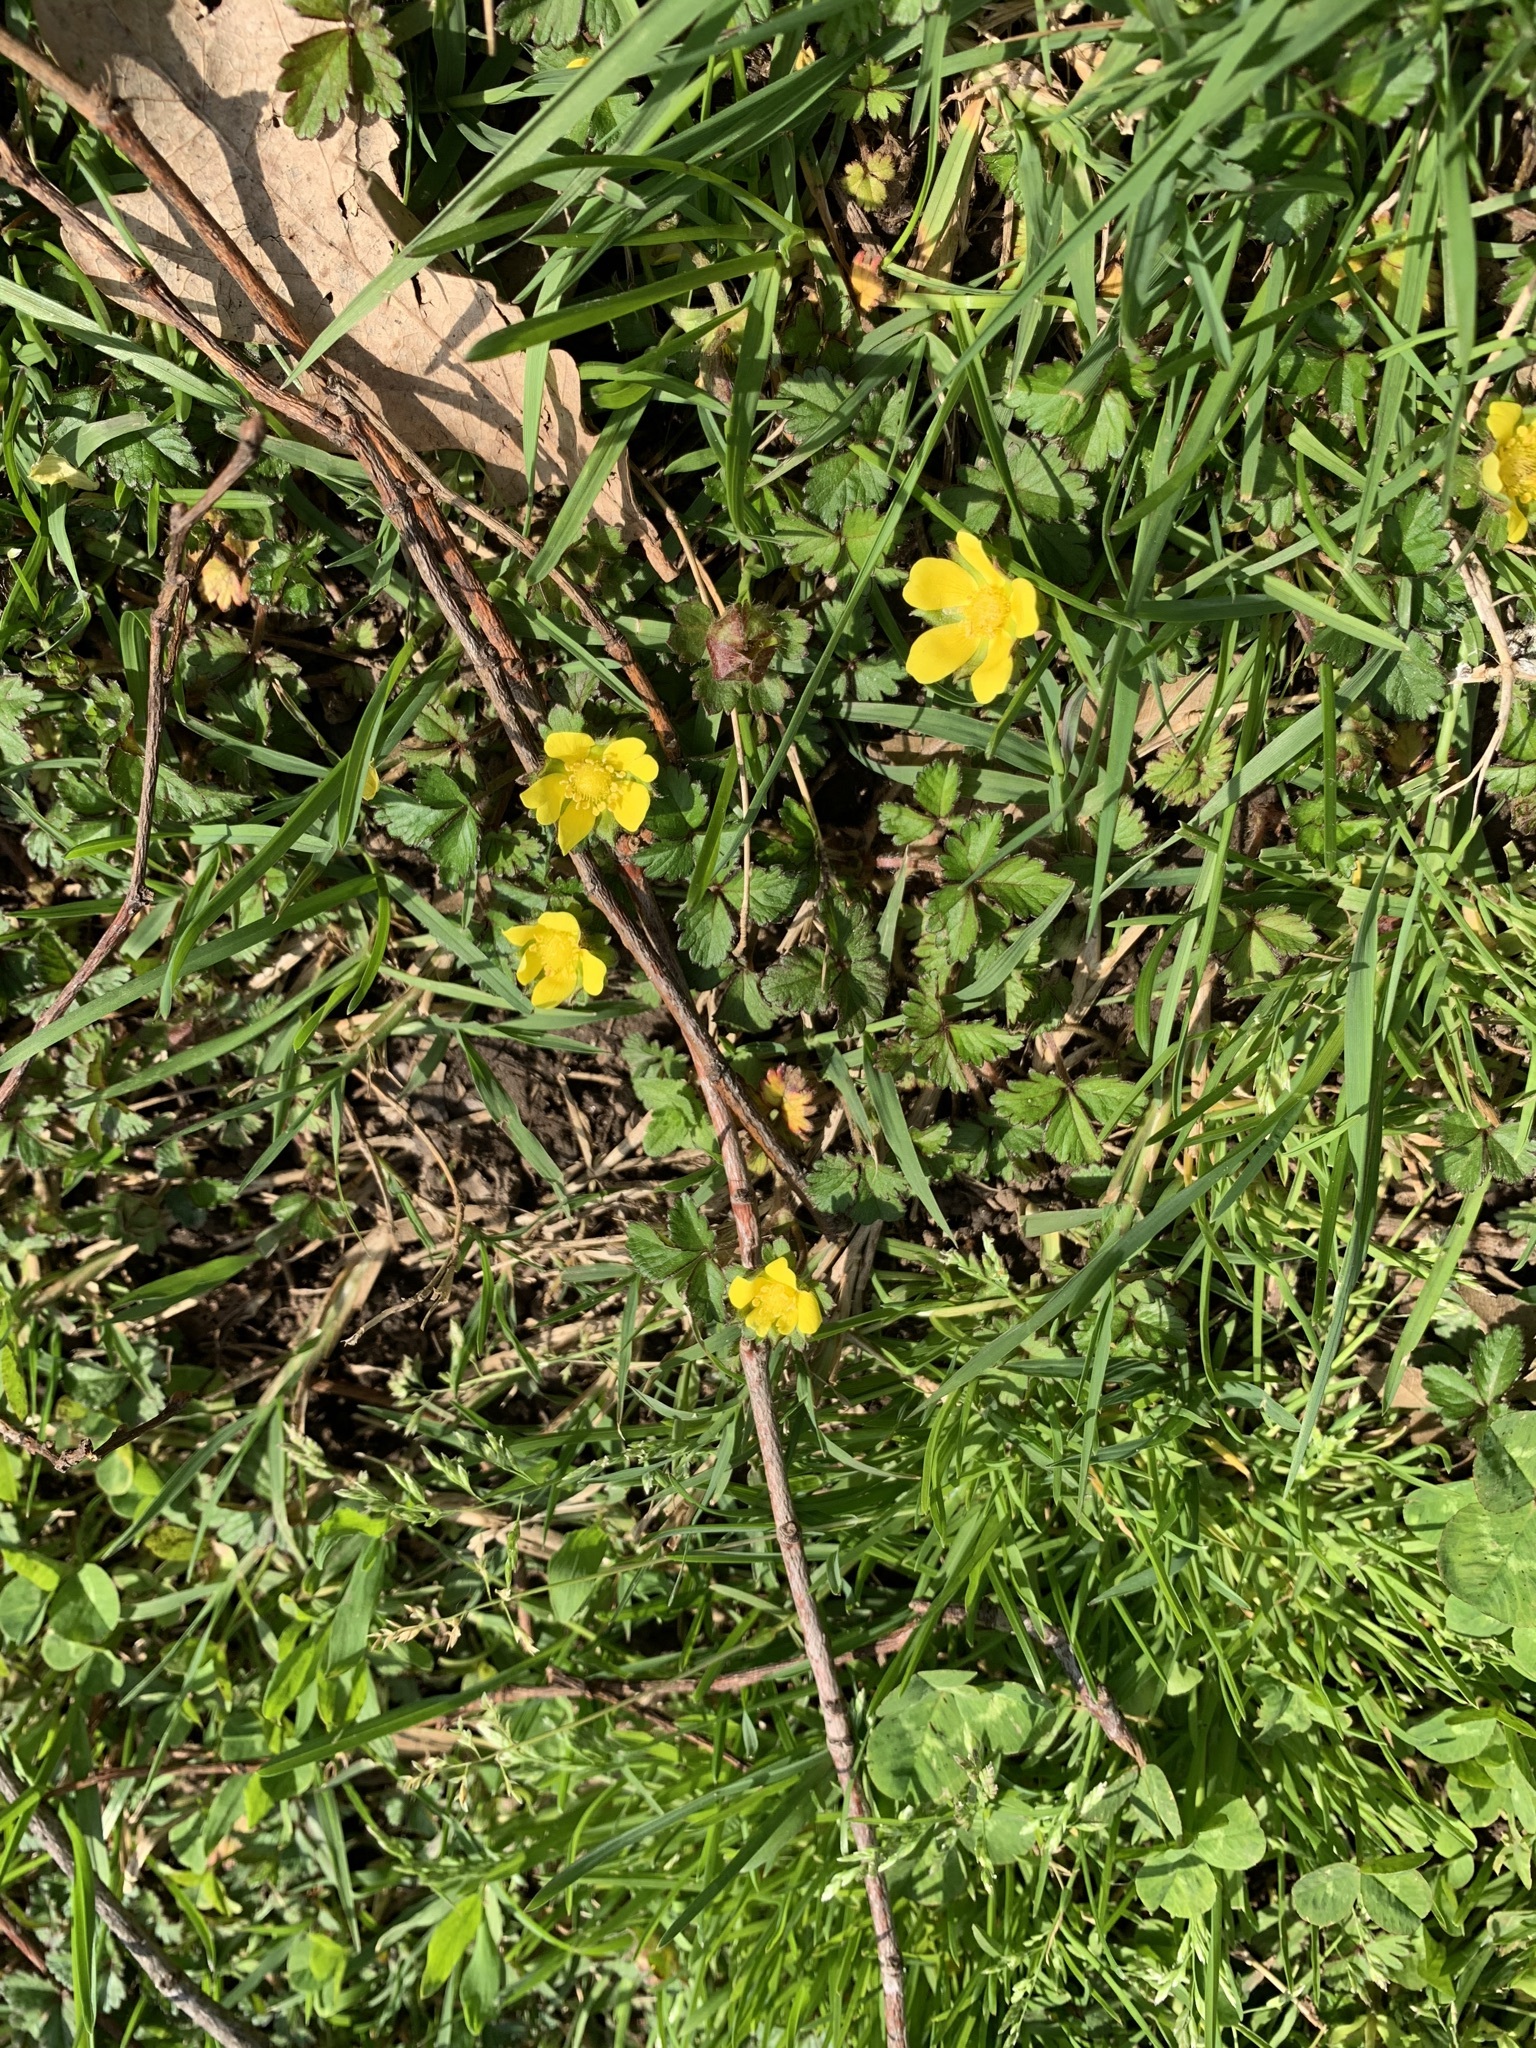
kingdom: Plantae
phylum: Tracheophyta
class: Magnoliopsida
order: Rosales
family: Rosaceae
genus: Potentilla
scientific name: Potentilla indica
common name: Yellow-flowered strawberry
